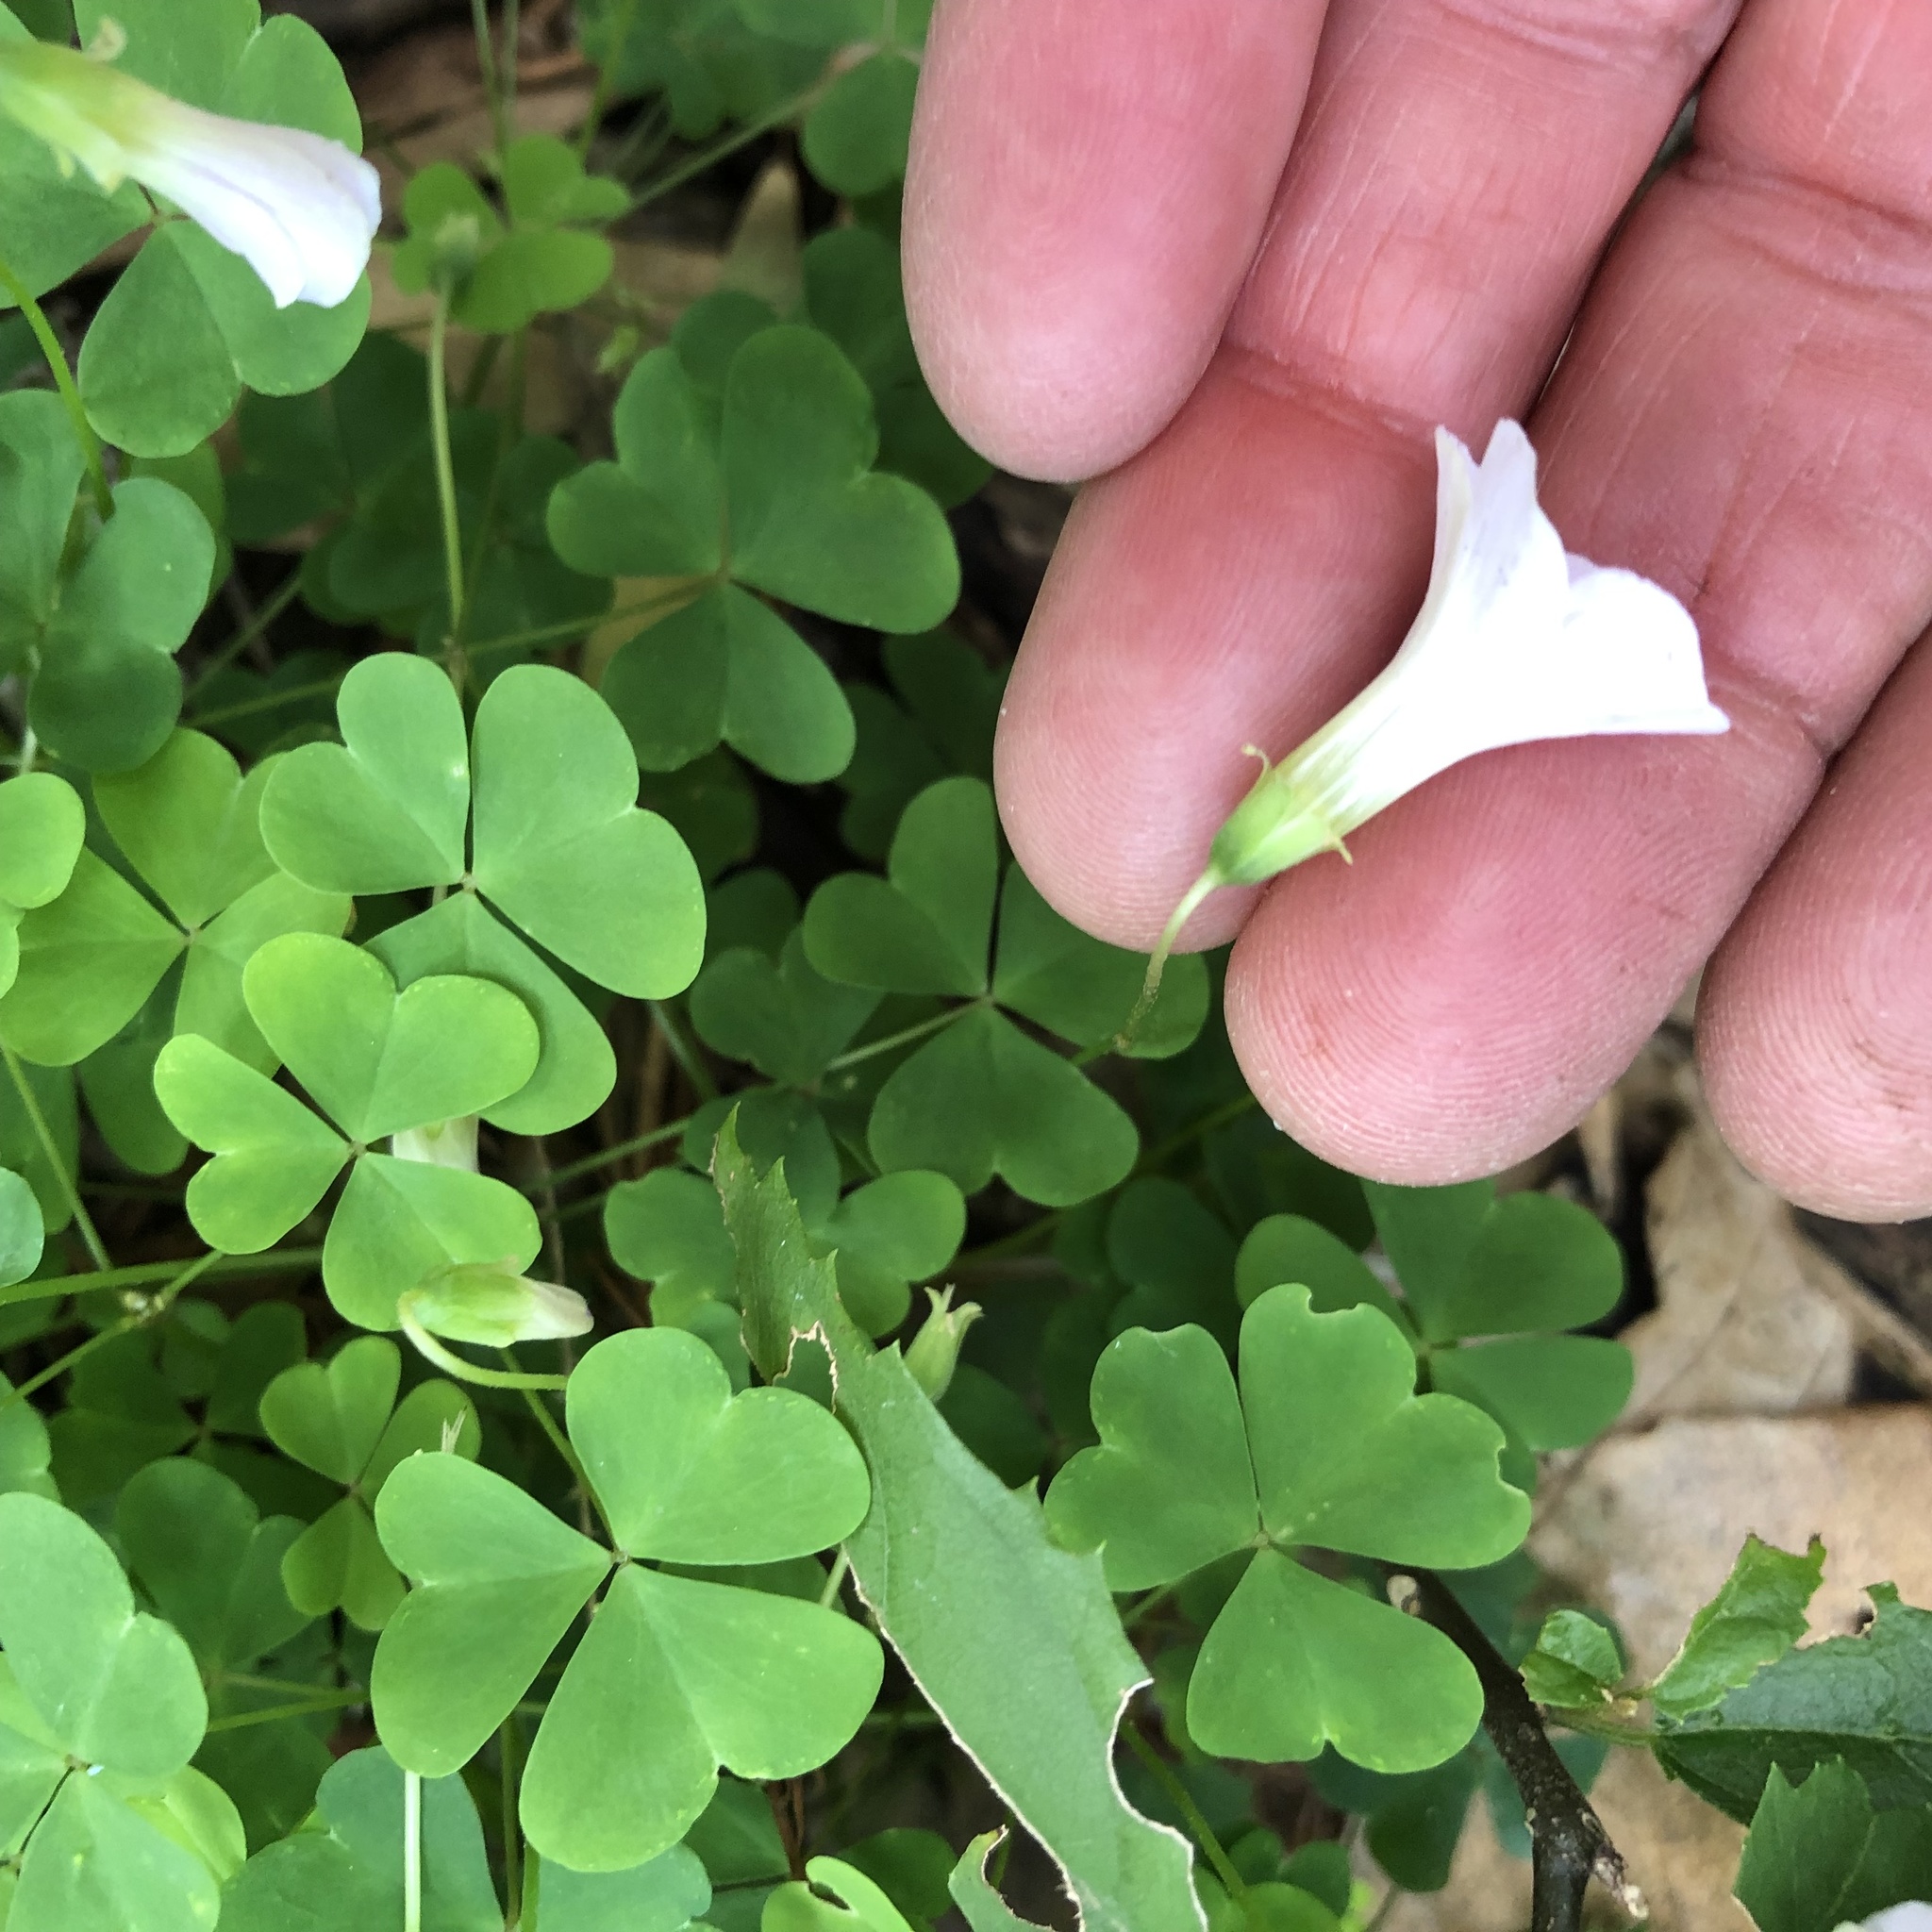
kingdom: Plantae
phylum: Tracheophyta
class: Magnoliopsida
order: Oxalidales
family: Oxalidaceae
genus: Oxalis
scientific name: Oxalis incarnata
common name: Pale pink-sorrel
